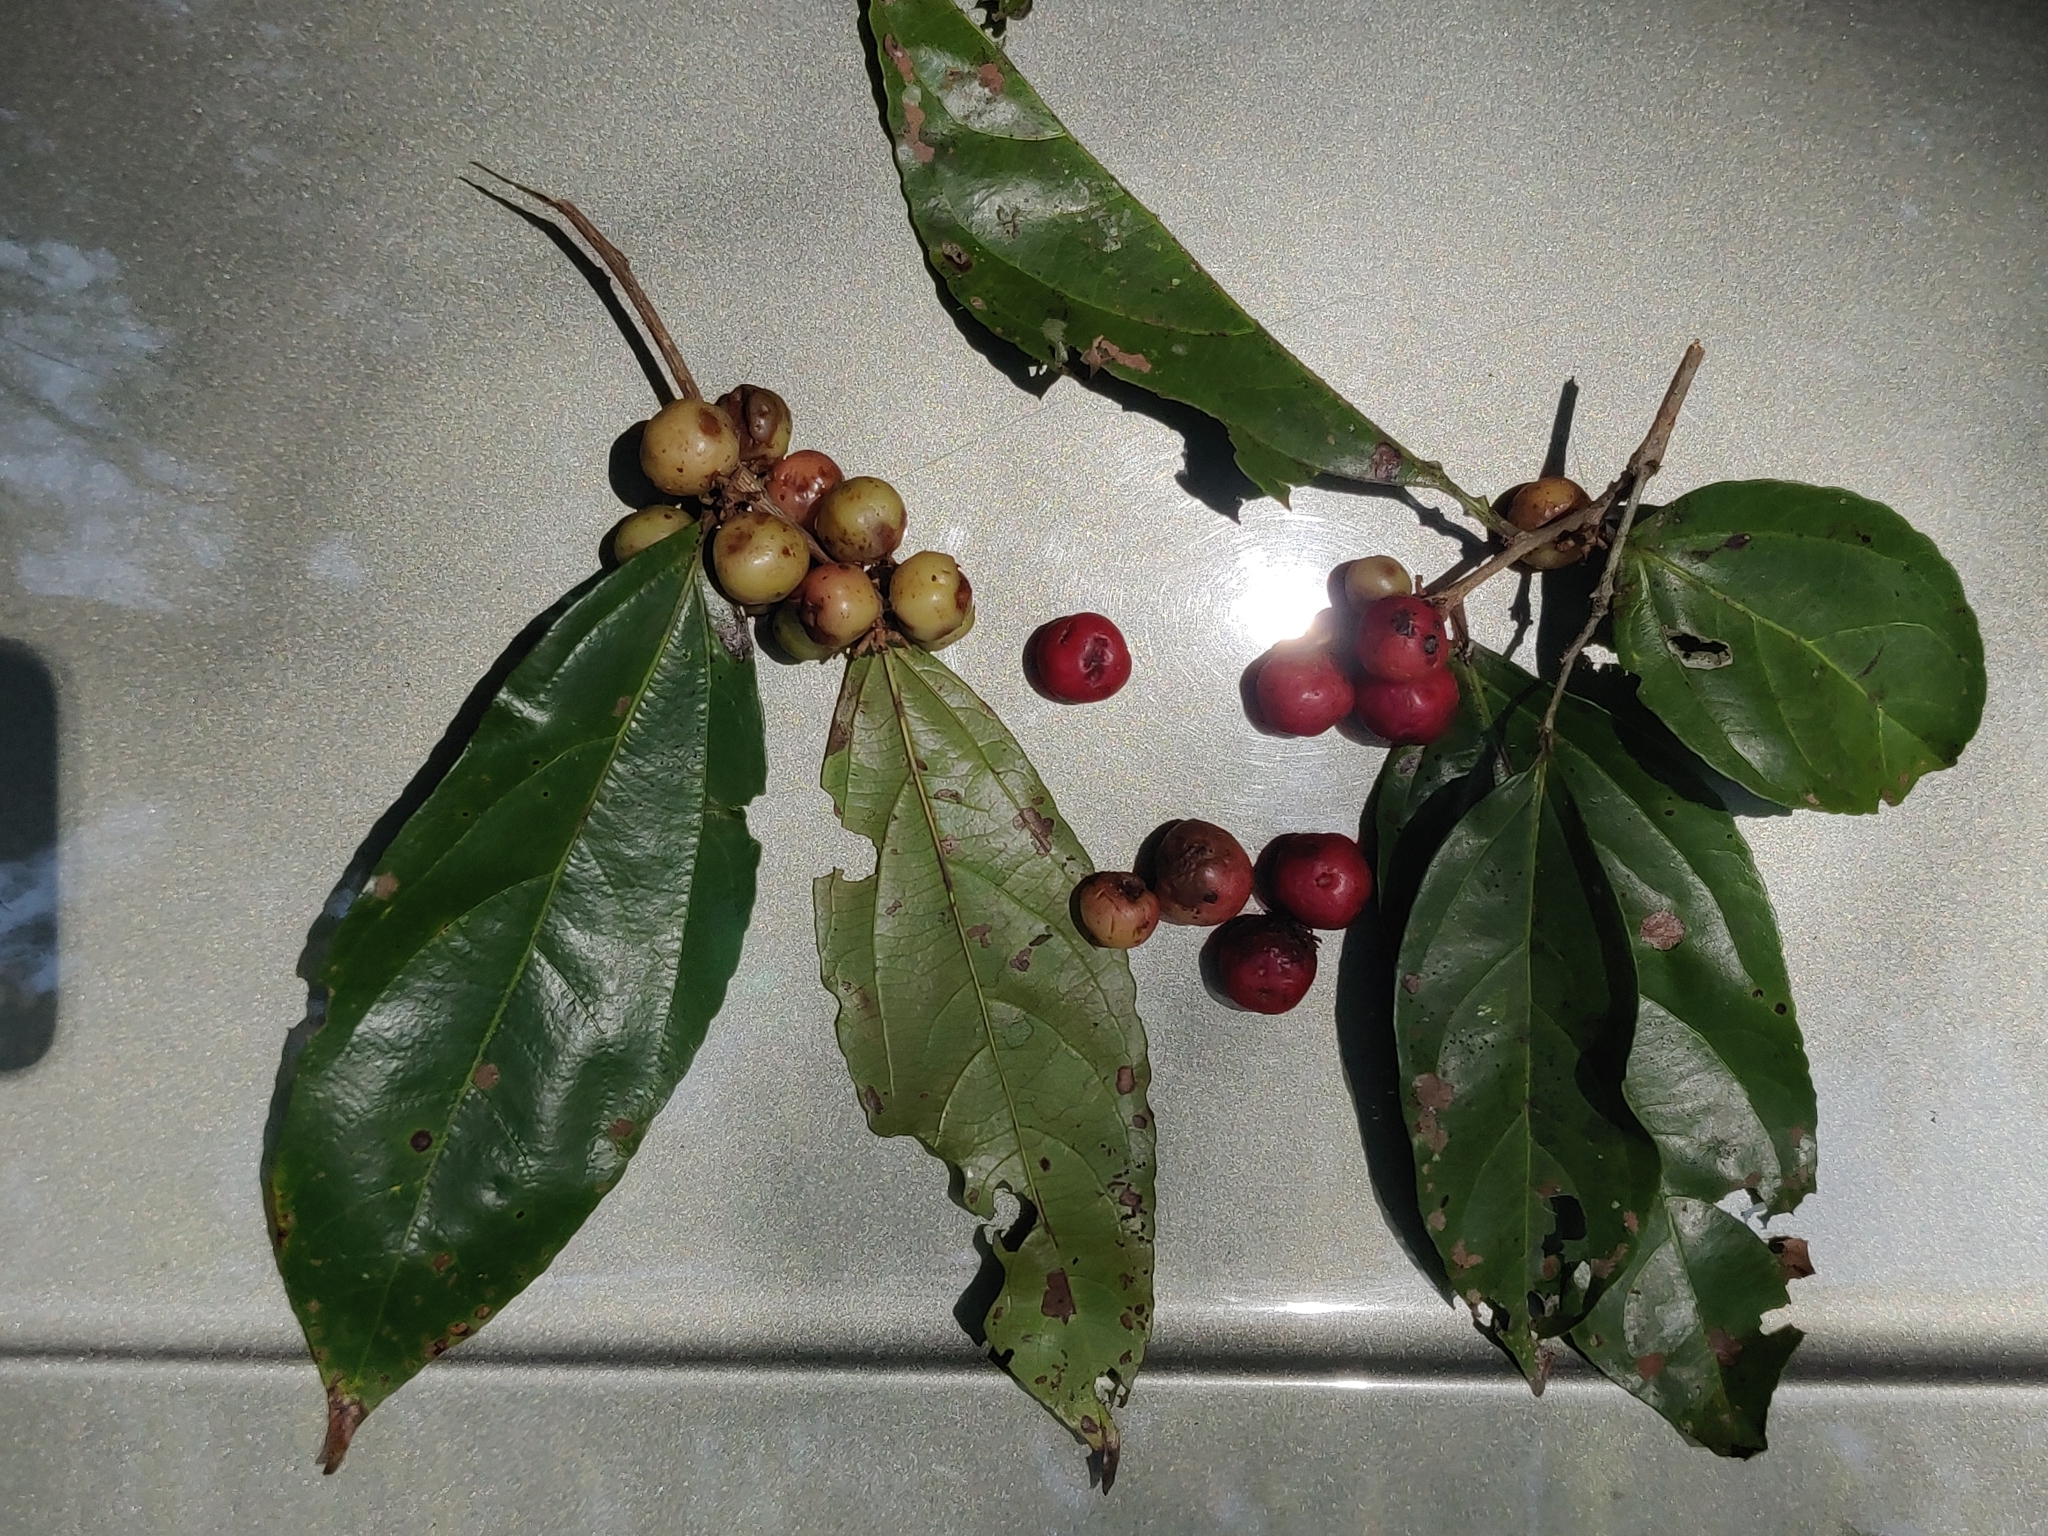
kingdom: Plantae
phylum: Tracheophyta
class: Magnoliopsida
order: Malpighiales
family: Salicaceae
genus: Flacourtia
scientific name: Flacourtia montana
